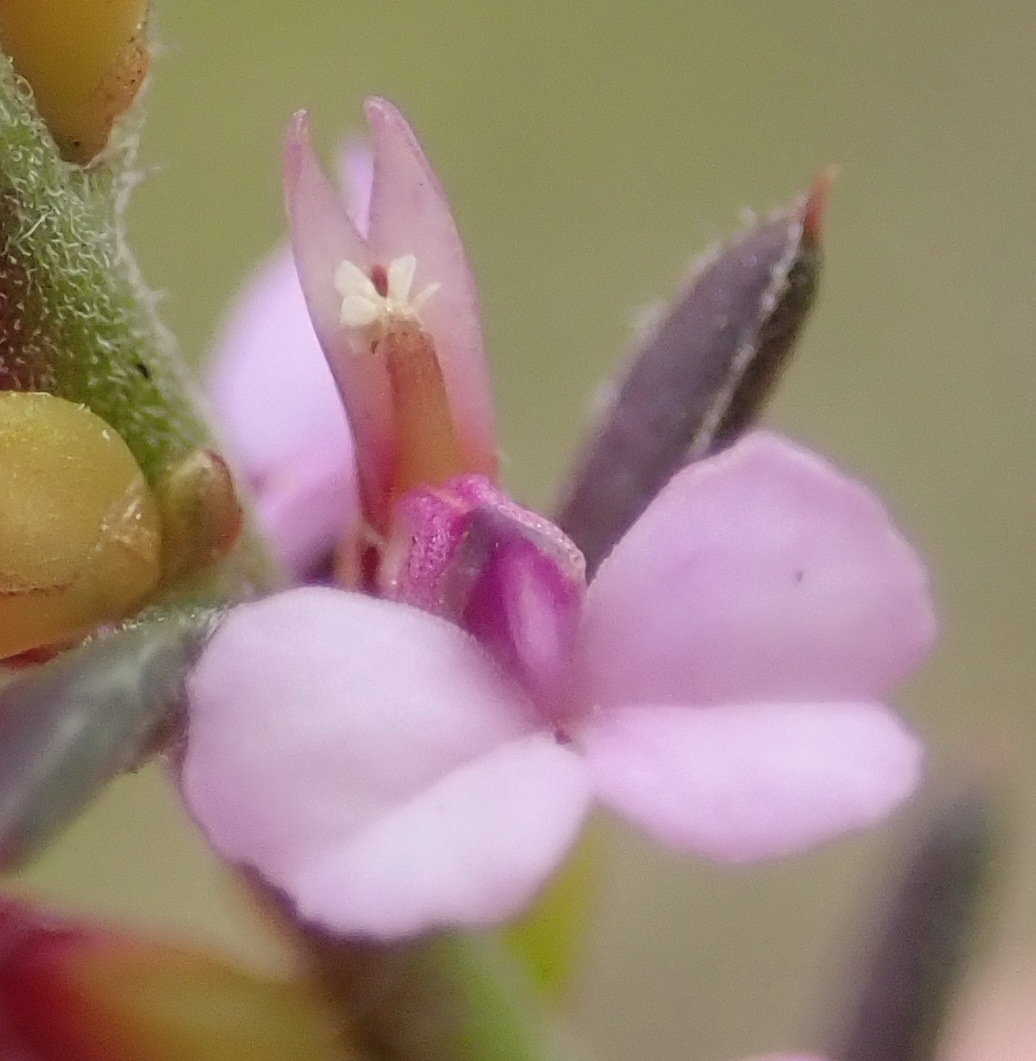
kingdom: Plantae
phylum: Tracheophyta
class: Magnoliopsida
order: Fabales
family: Polygalaceae
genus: Muraltia
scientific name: Muraltia knysnaensis
